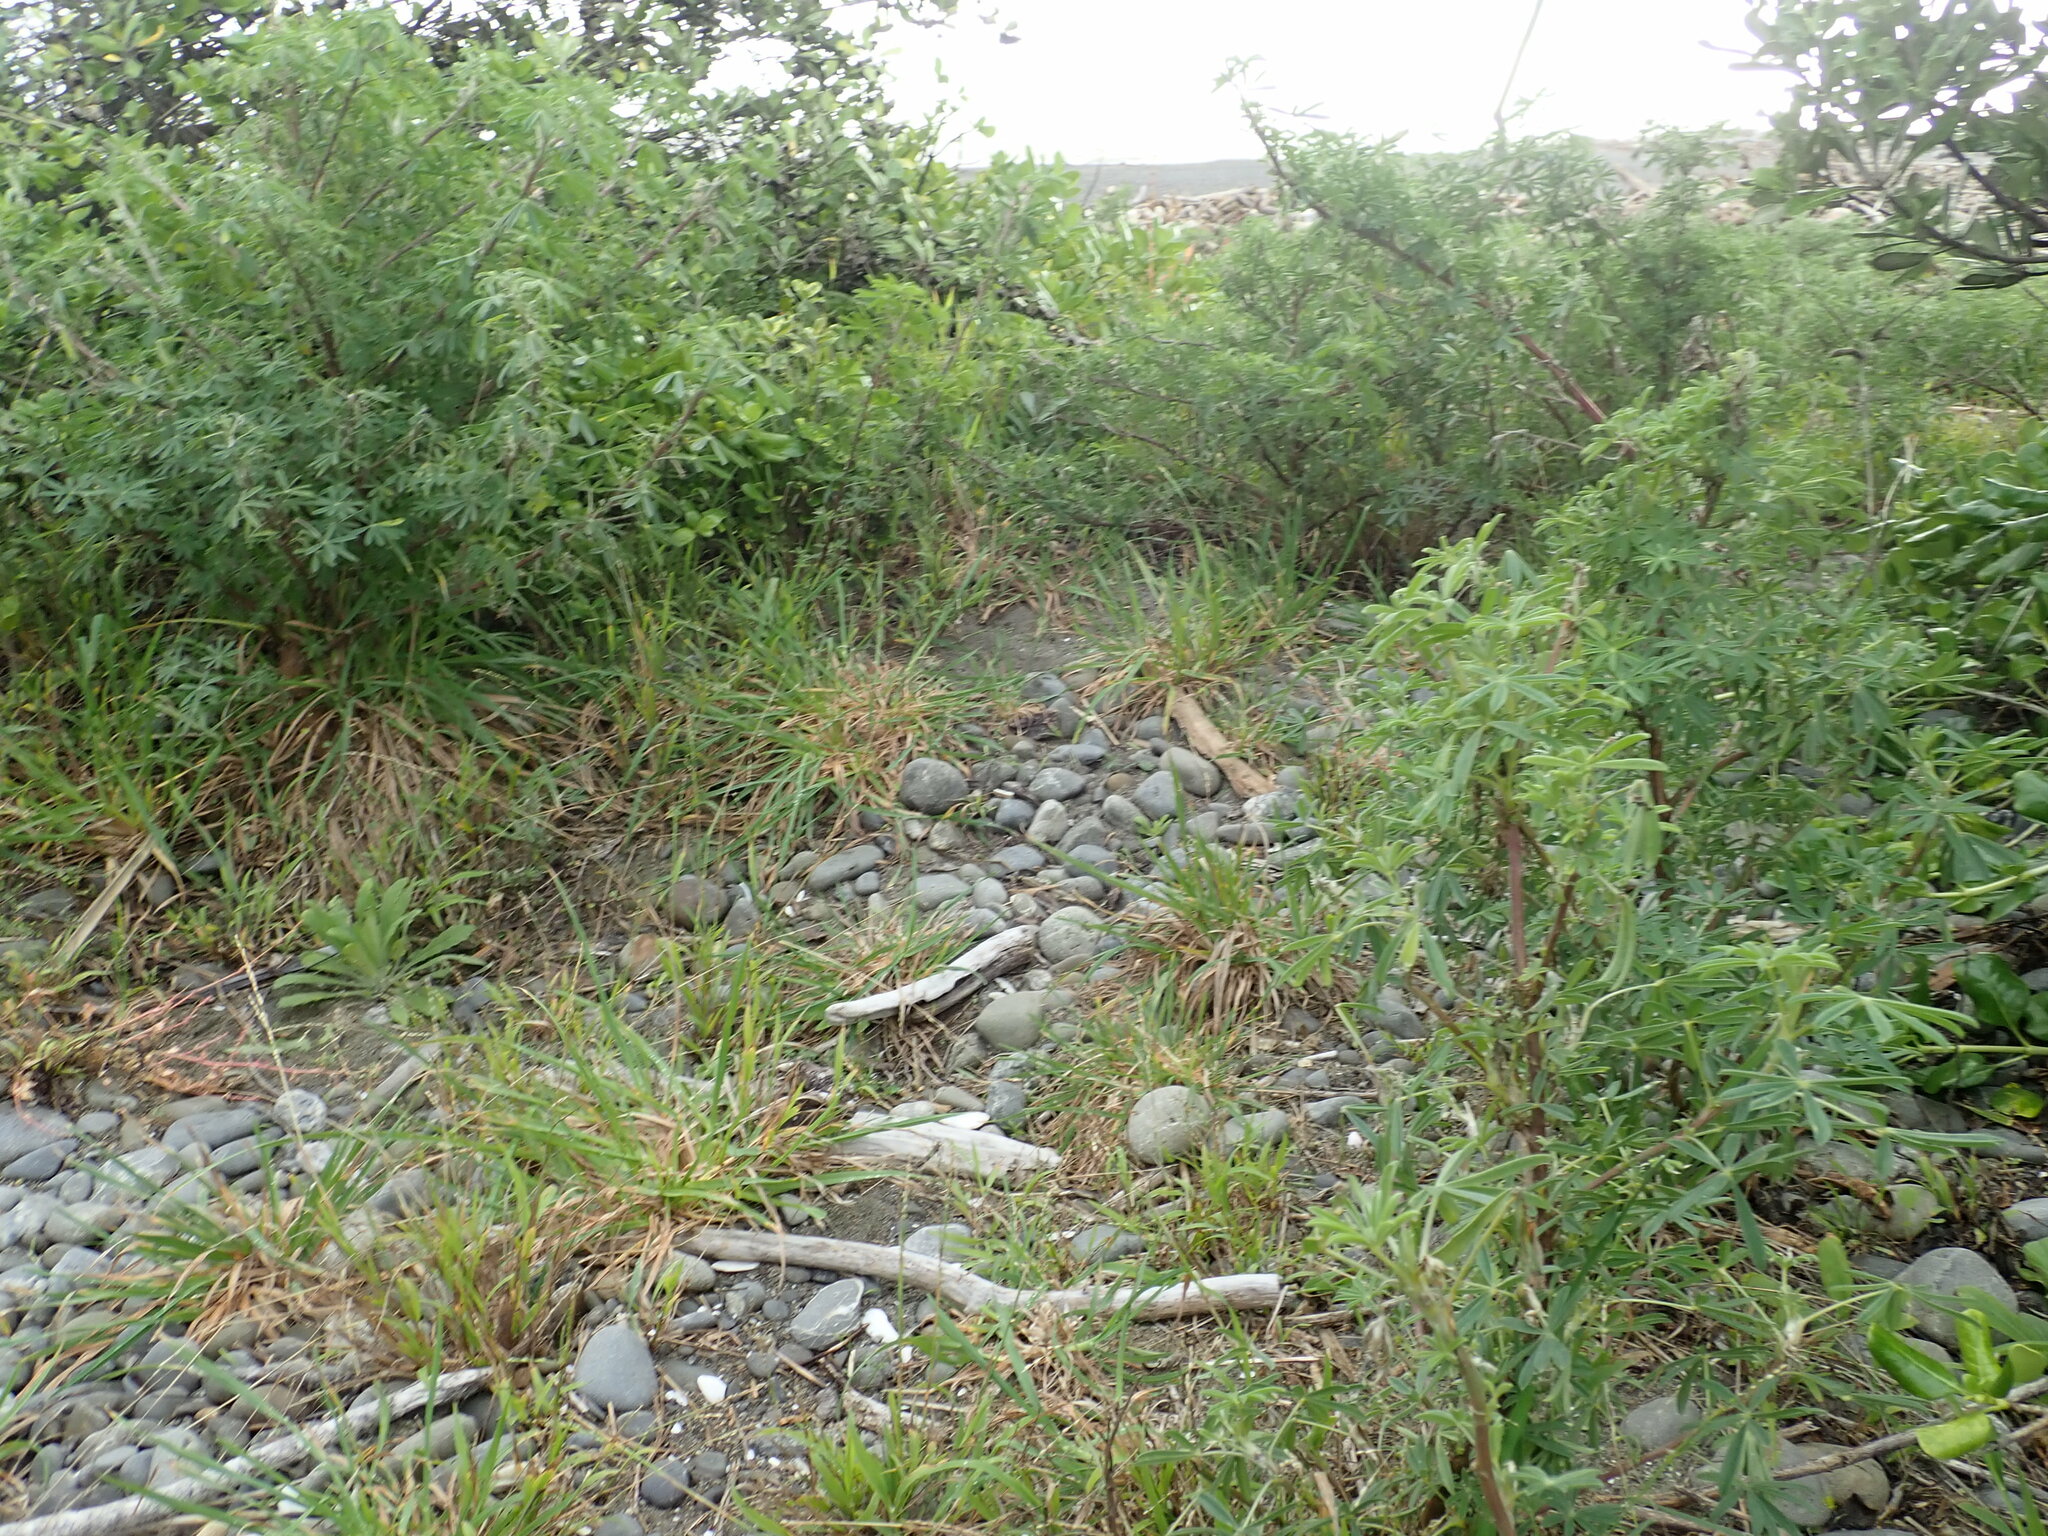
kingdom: Plantae
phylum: Tracheophyta
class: Magnoliopsida
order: Fabales
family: Fabaceae
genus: Lupinus
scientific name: Lupinus arboreus
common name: Yellow bush lupine
